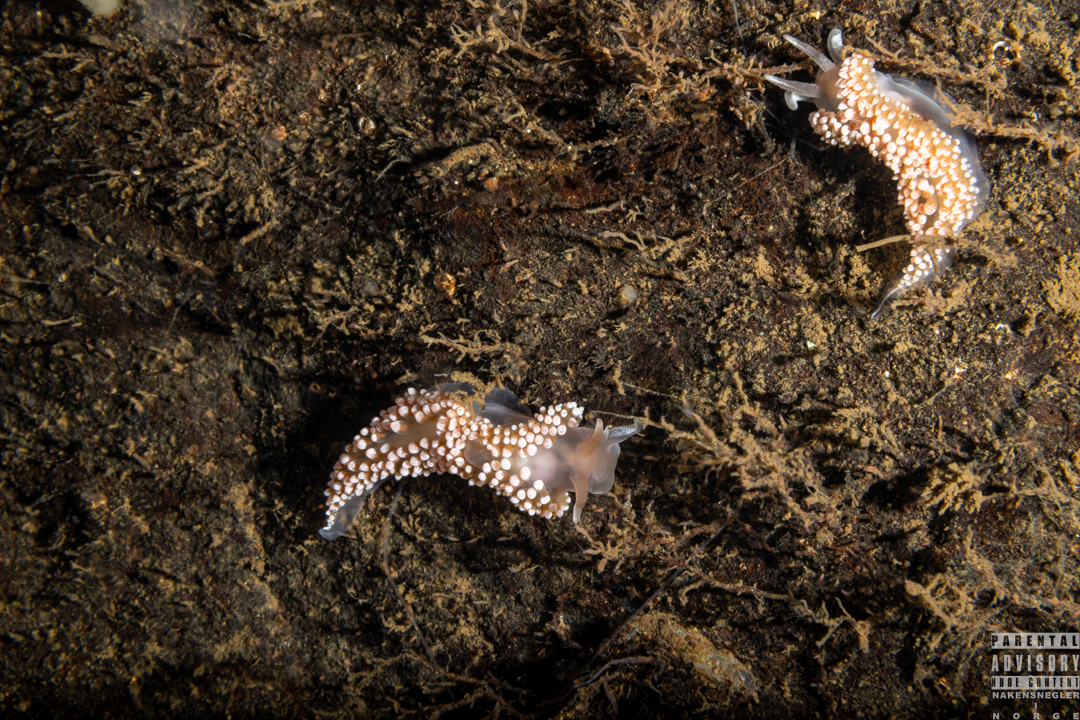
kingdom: Animalia
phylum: Mollusca
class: Gastropoda
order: Nudibranchia
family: Coryphellidae
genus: Coryphella
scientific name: Coryphella verrucosa
